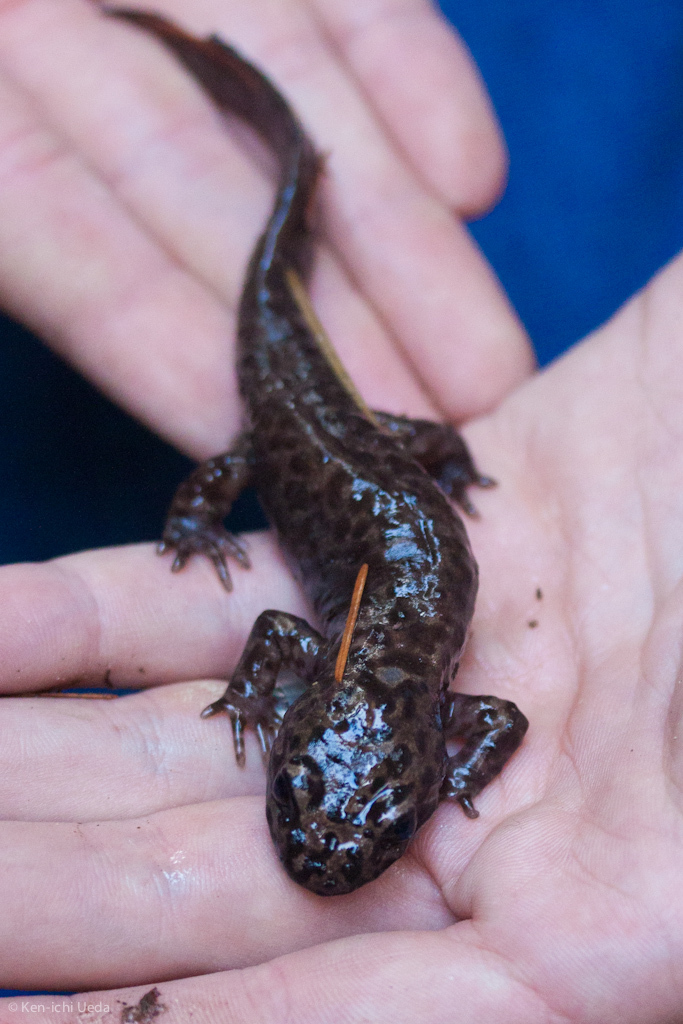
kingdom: Animalia
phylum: Chordata
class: Amphibia
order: Caudata
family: Ambystomatidae
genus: Dicamptodon
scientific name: Dicamptodon ensatus
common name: California giant salamander
